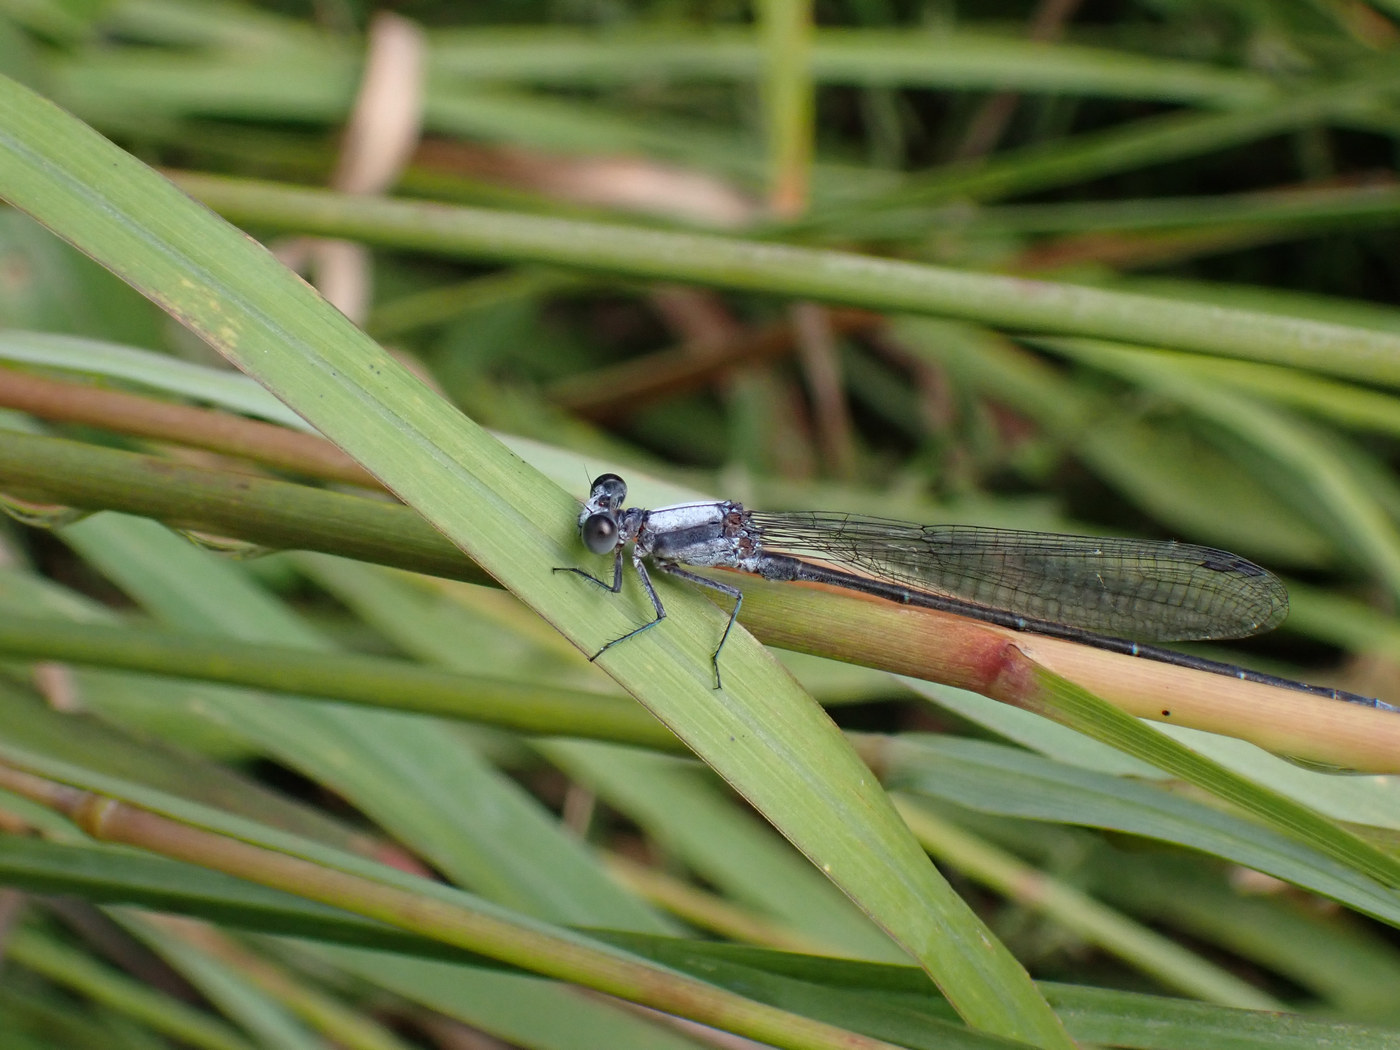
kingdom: Animalia
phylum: Arthropoda
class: Insecta
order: Odonata
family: Coenagrionidae
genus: Argia
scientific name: Argia moesta
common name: Powdered dancer
